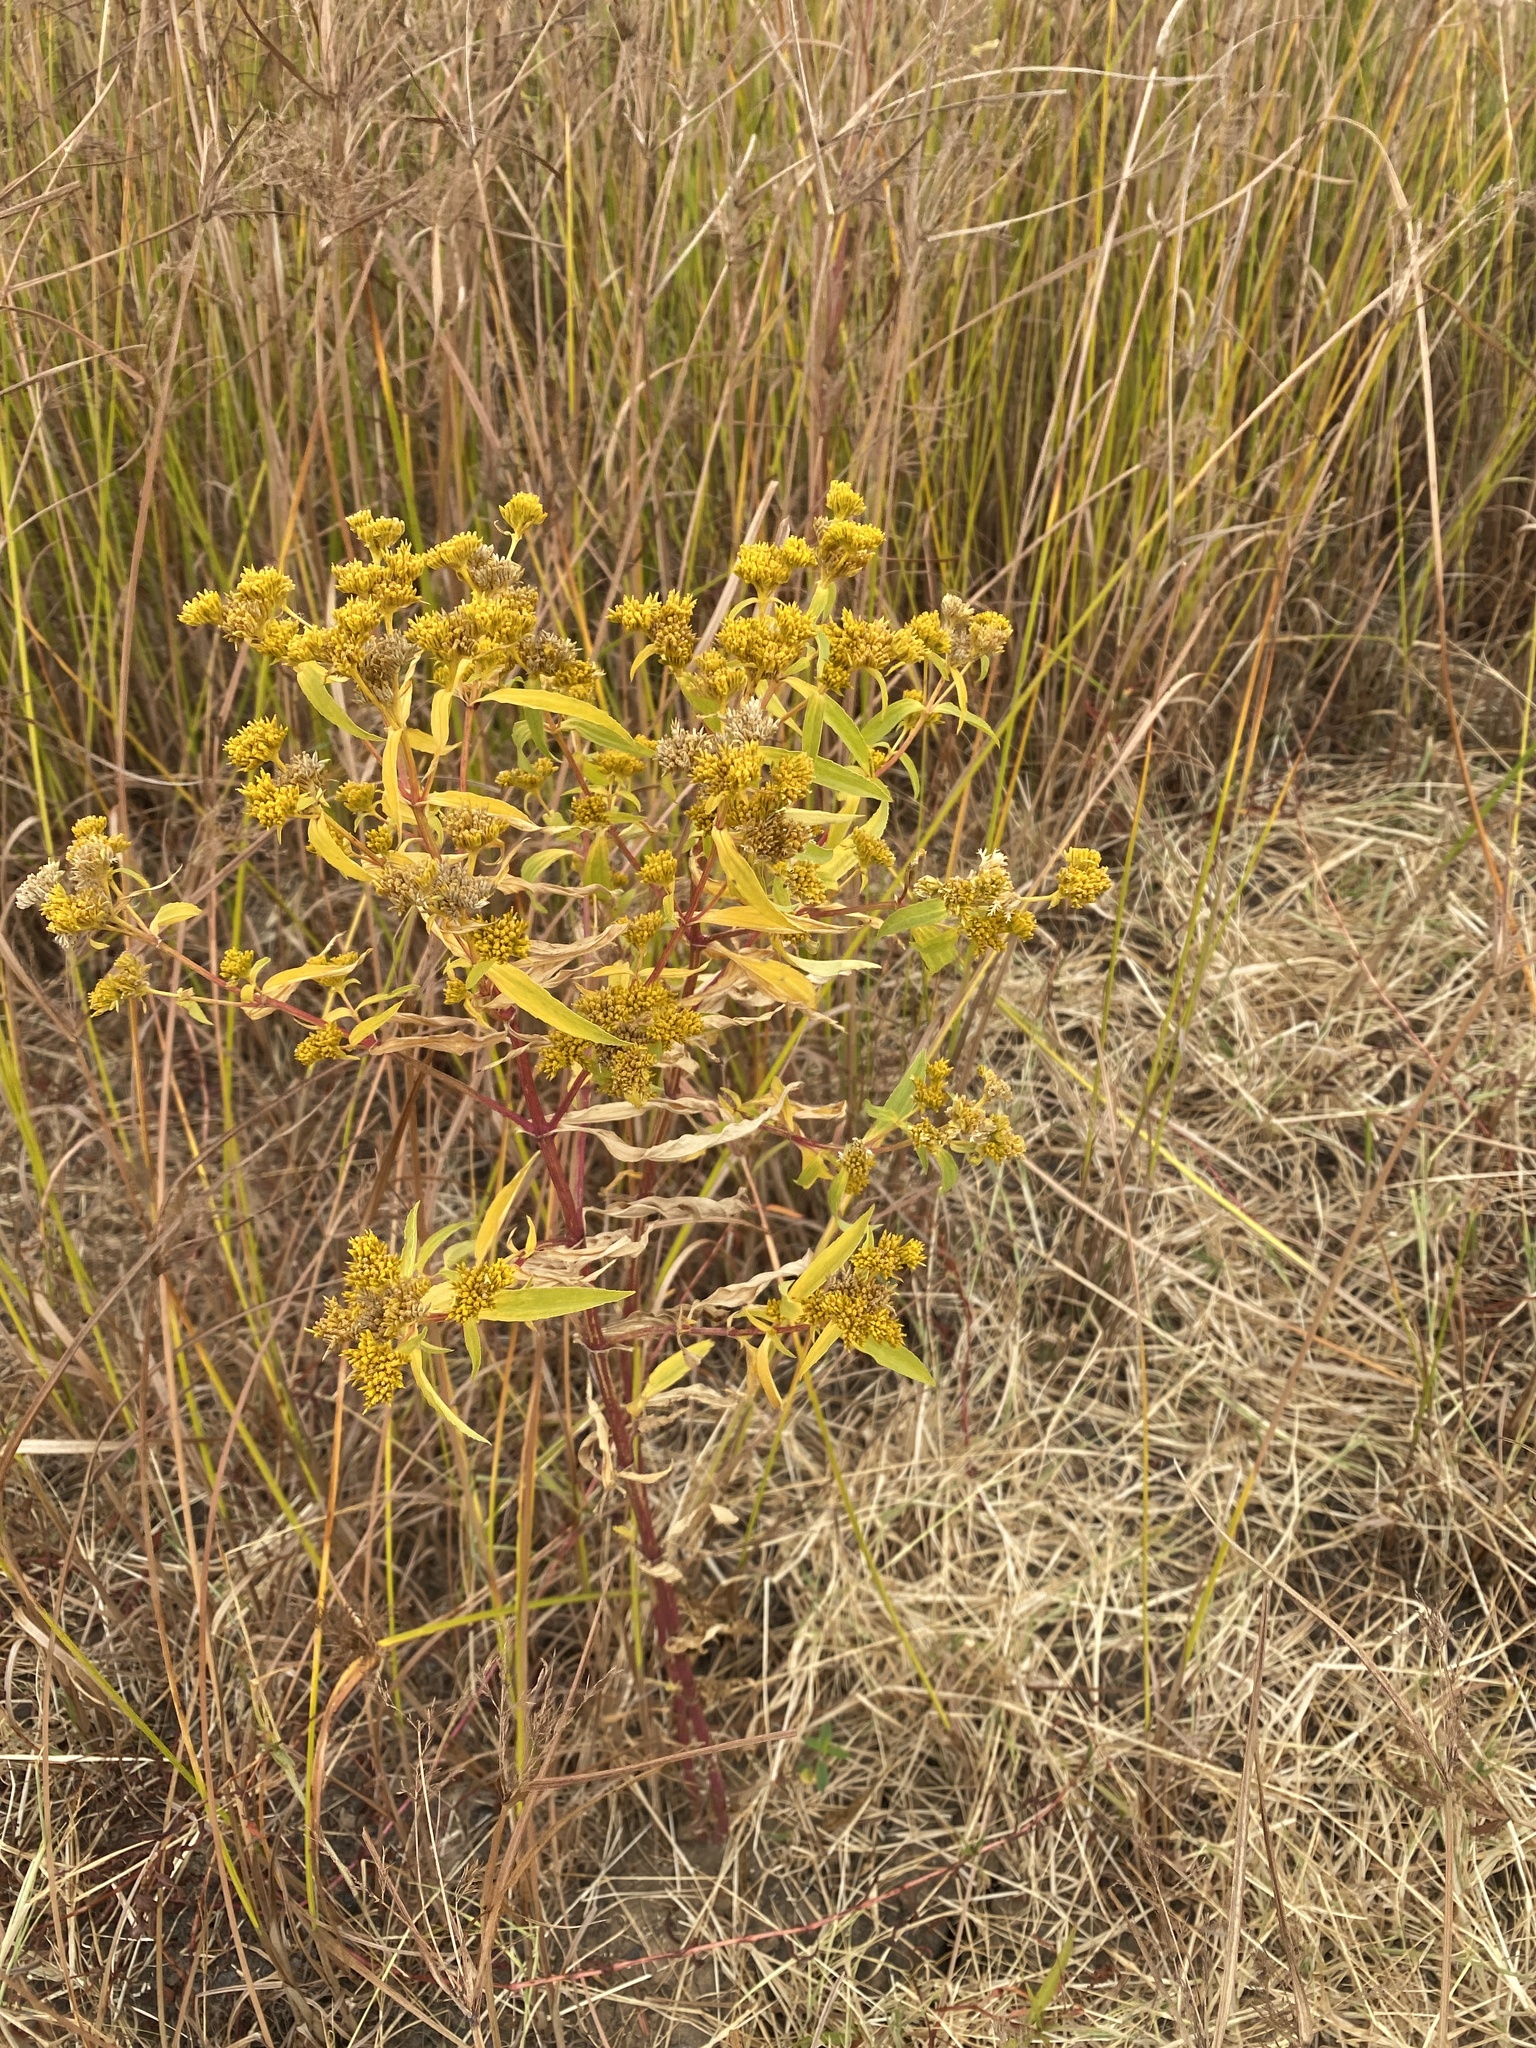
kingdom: Plantae
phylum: Tracheophyta
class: Magnoliopsida
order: Asterales
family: Asteraceae
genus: Flaveria
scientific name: Flaveria bidentis
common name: Coastal plain yellowtops
